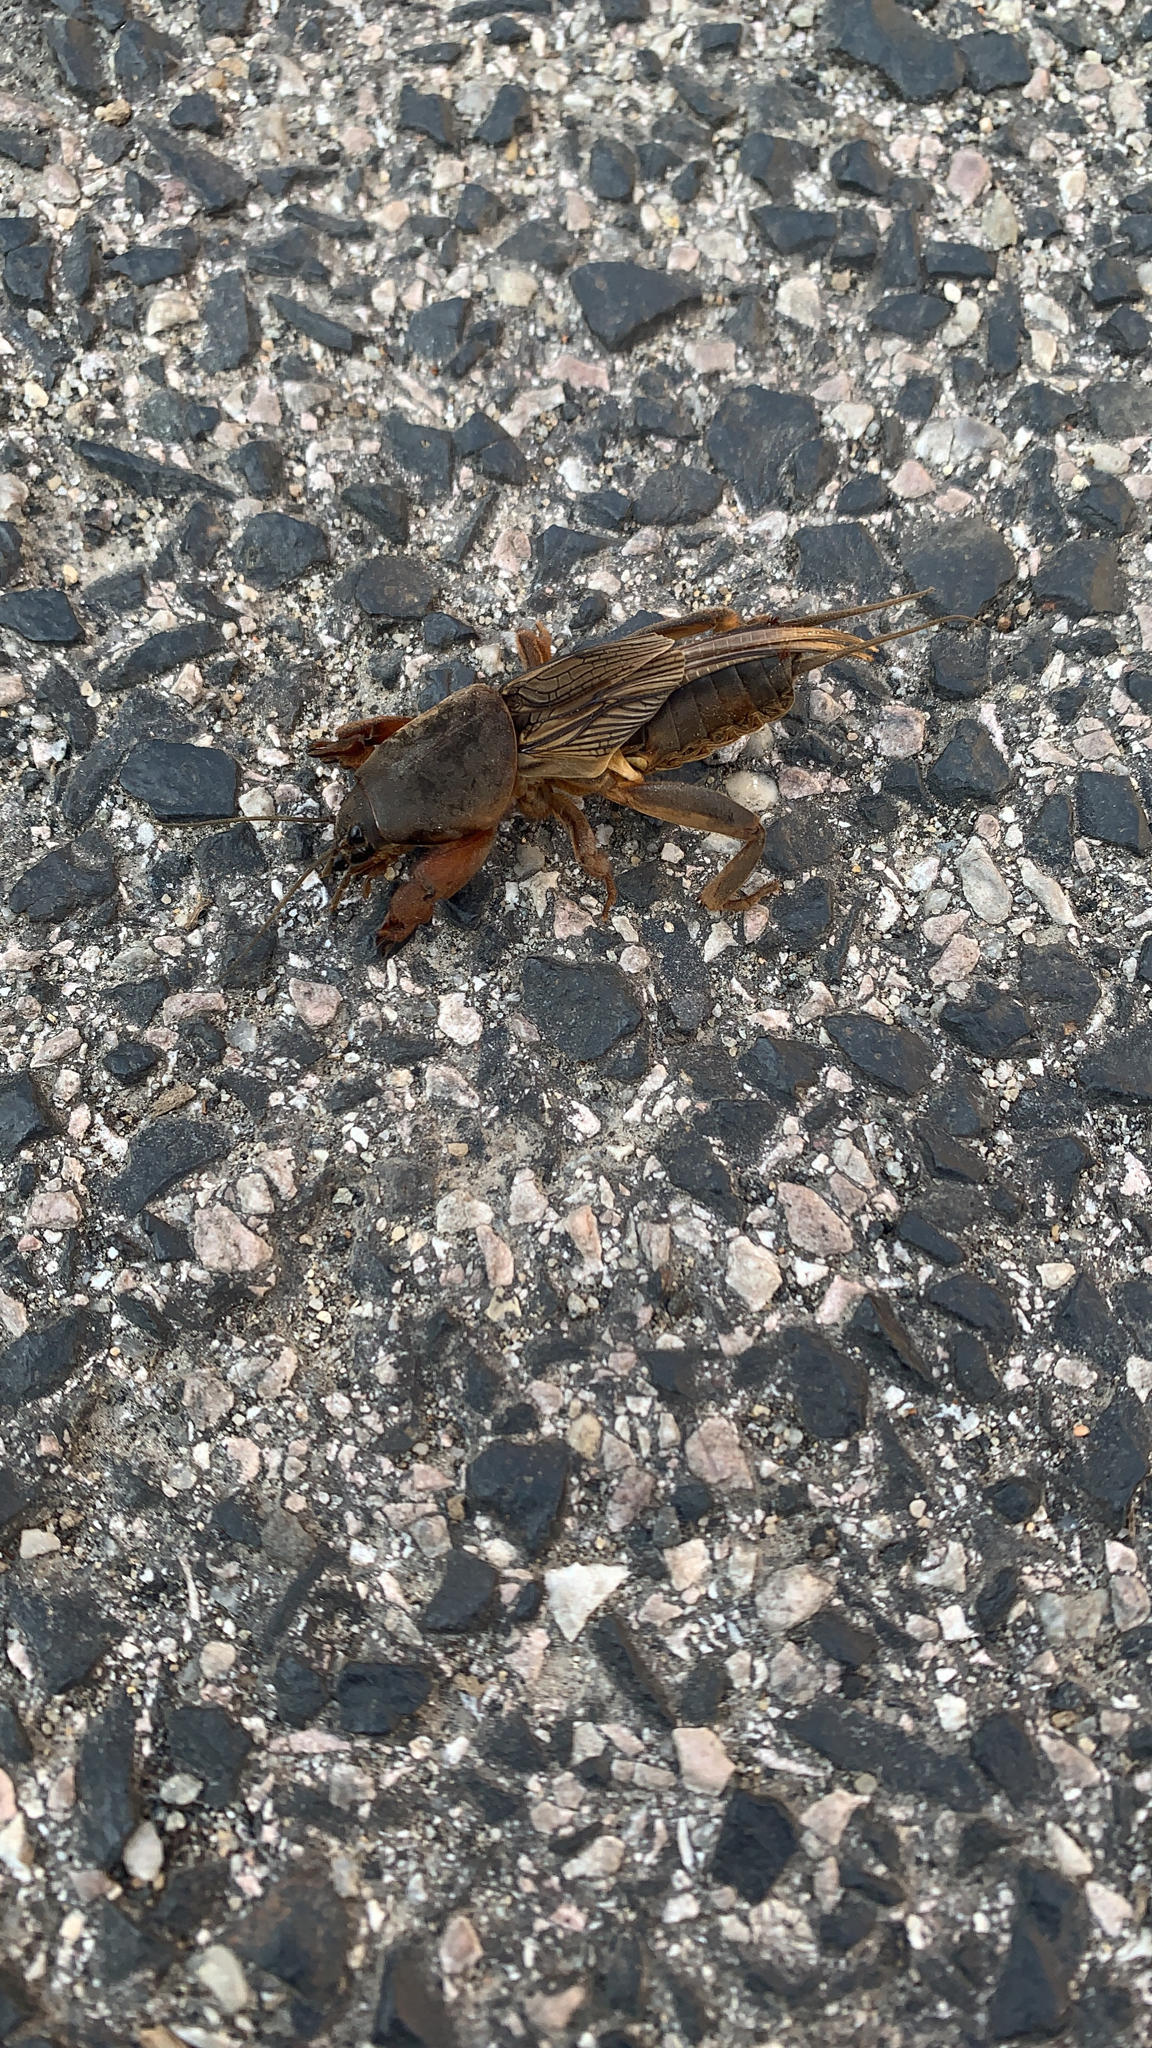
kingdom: Animalia
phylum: Arthropoda
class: Insecta
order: Orthoptera
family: Gryllotalpidae
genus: Gryllotalpa
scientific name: Gryllotalpa gryllotalpa
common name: European mole cricket
